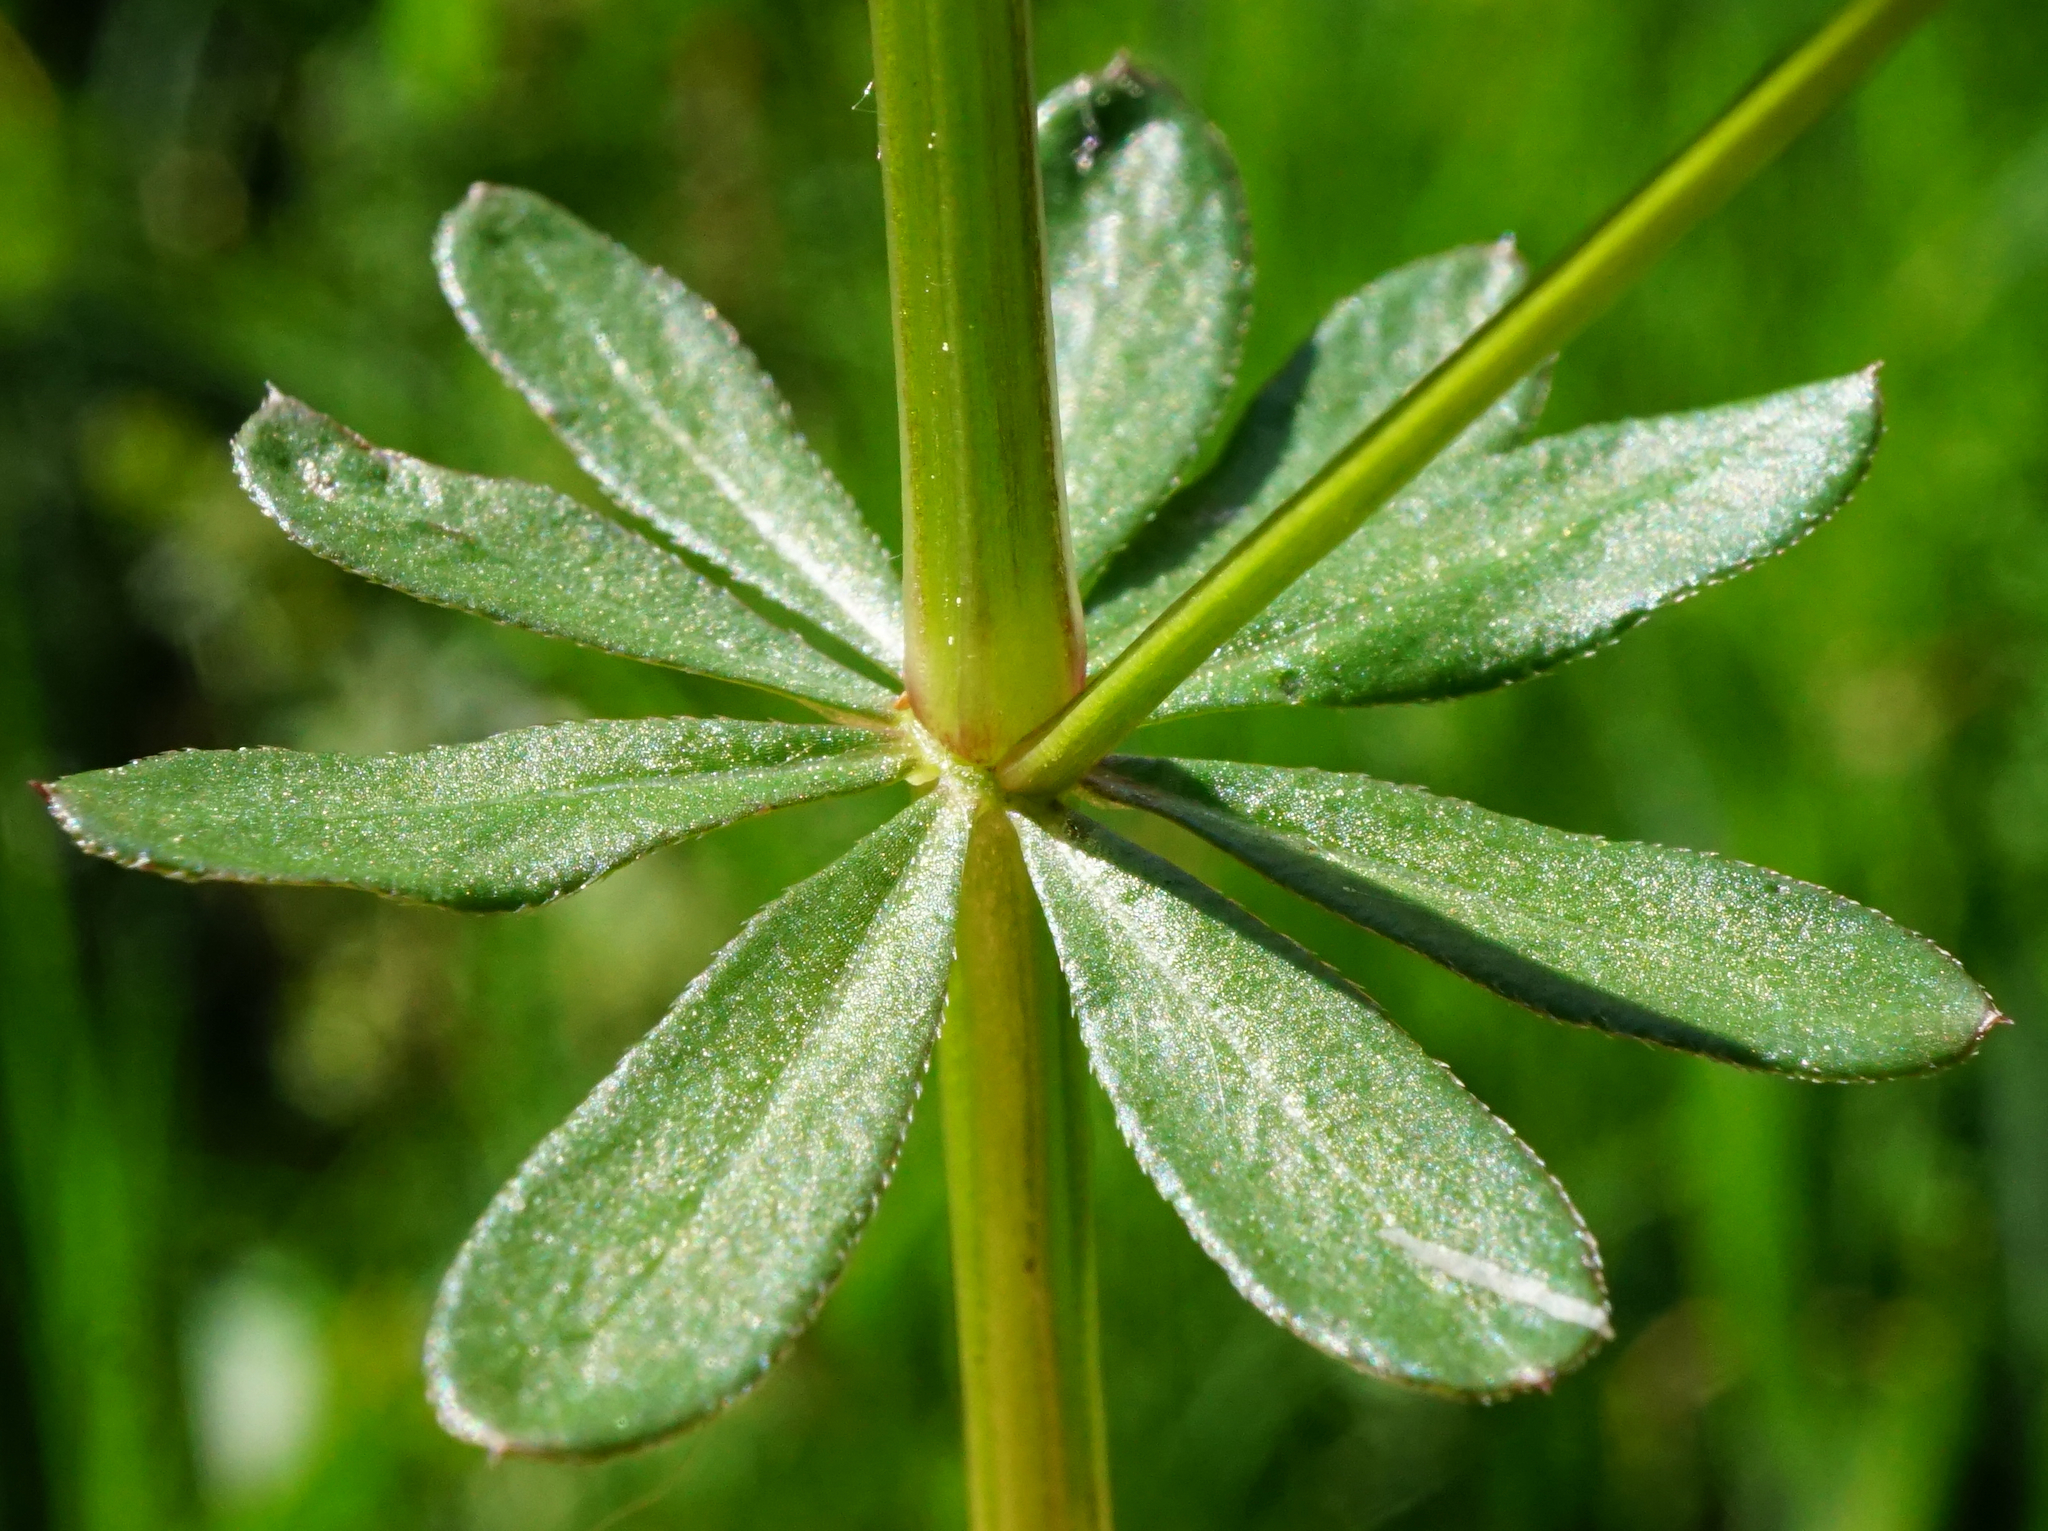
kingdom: Plantae
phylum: Tracheophyta
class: Magnoliopsida
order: Gentianales
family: Rubiaceae
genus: Galium
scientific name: Galium mollugo
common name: Hedge bedstraw
